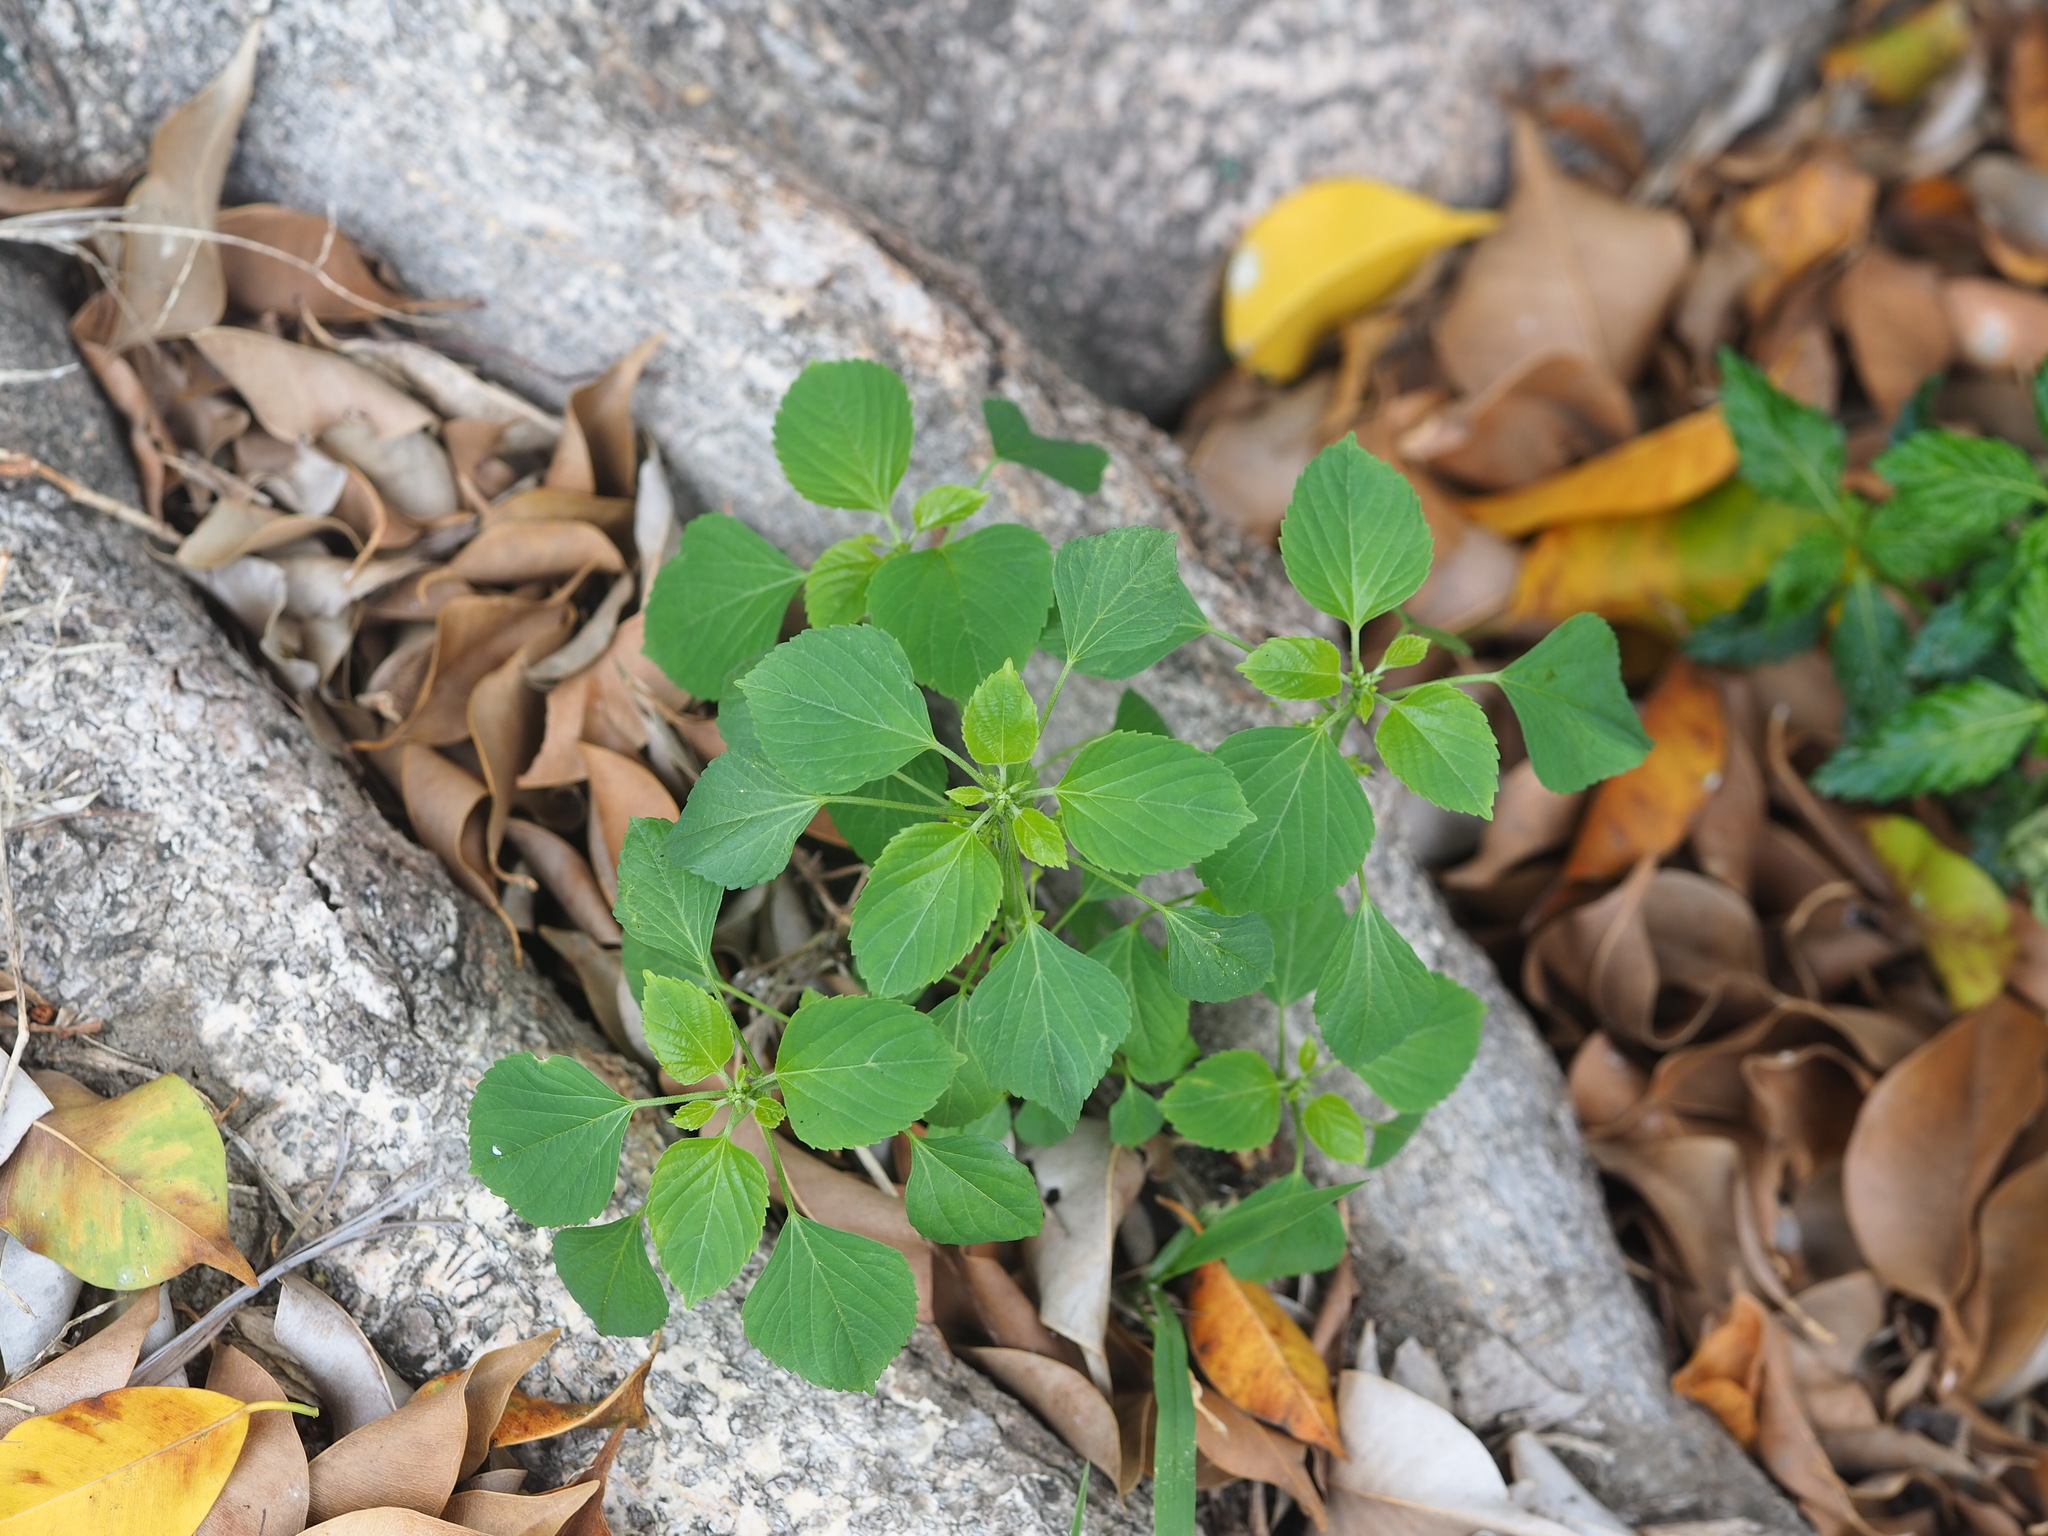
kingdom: Plantae
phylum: Tracheophyta
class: Magnoliopsida
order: Malpighiales
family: Euphorbiaceae
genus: Acalypha
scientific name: Acalypha indica
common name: Indian acalypha
